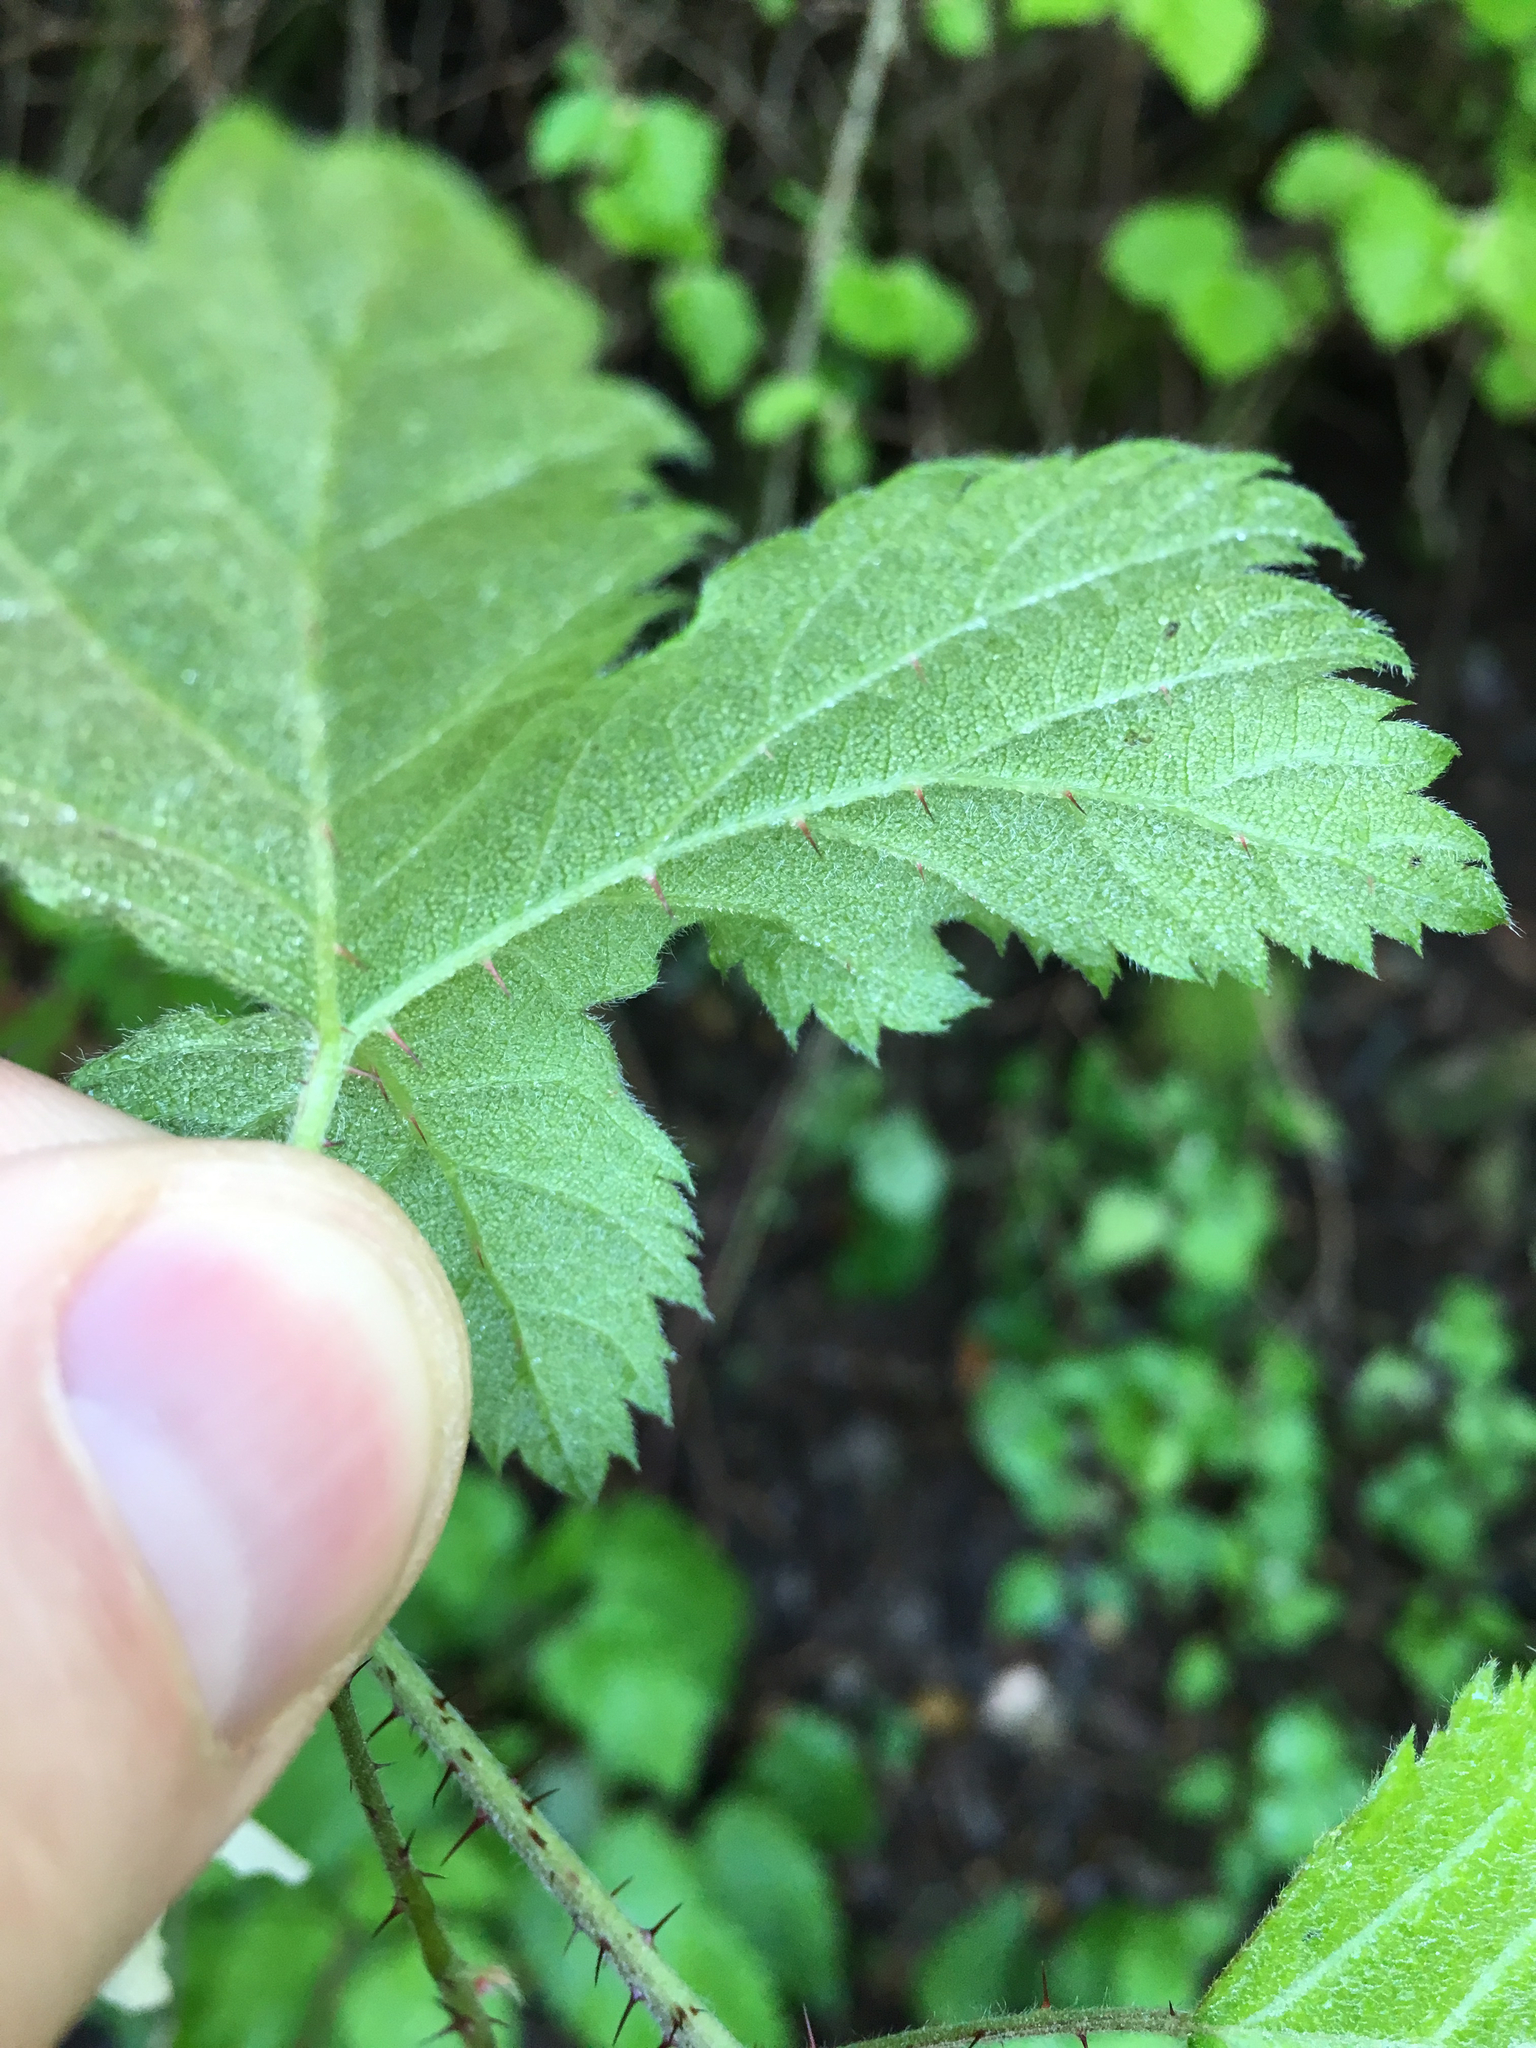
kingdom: Plantae
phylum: Tracheophyta
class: Magnoliopsida
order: Rosales
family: Rosaceae
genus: Rubus
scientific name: Rubus ursinus
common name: Pacific blackberry
